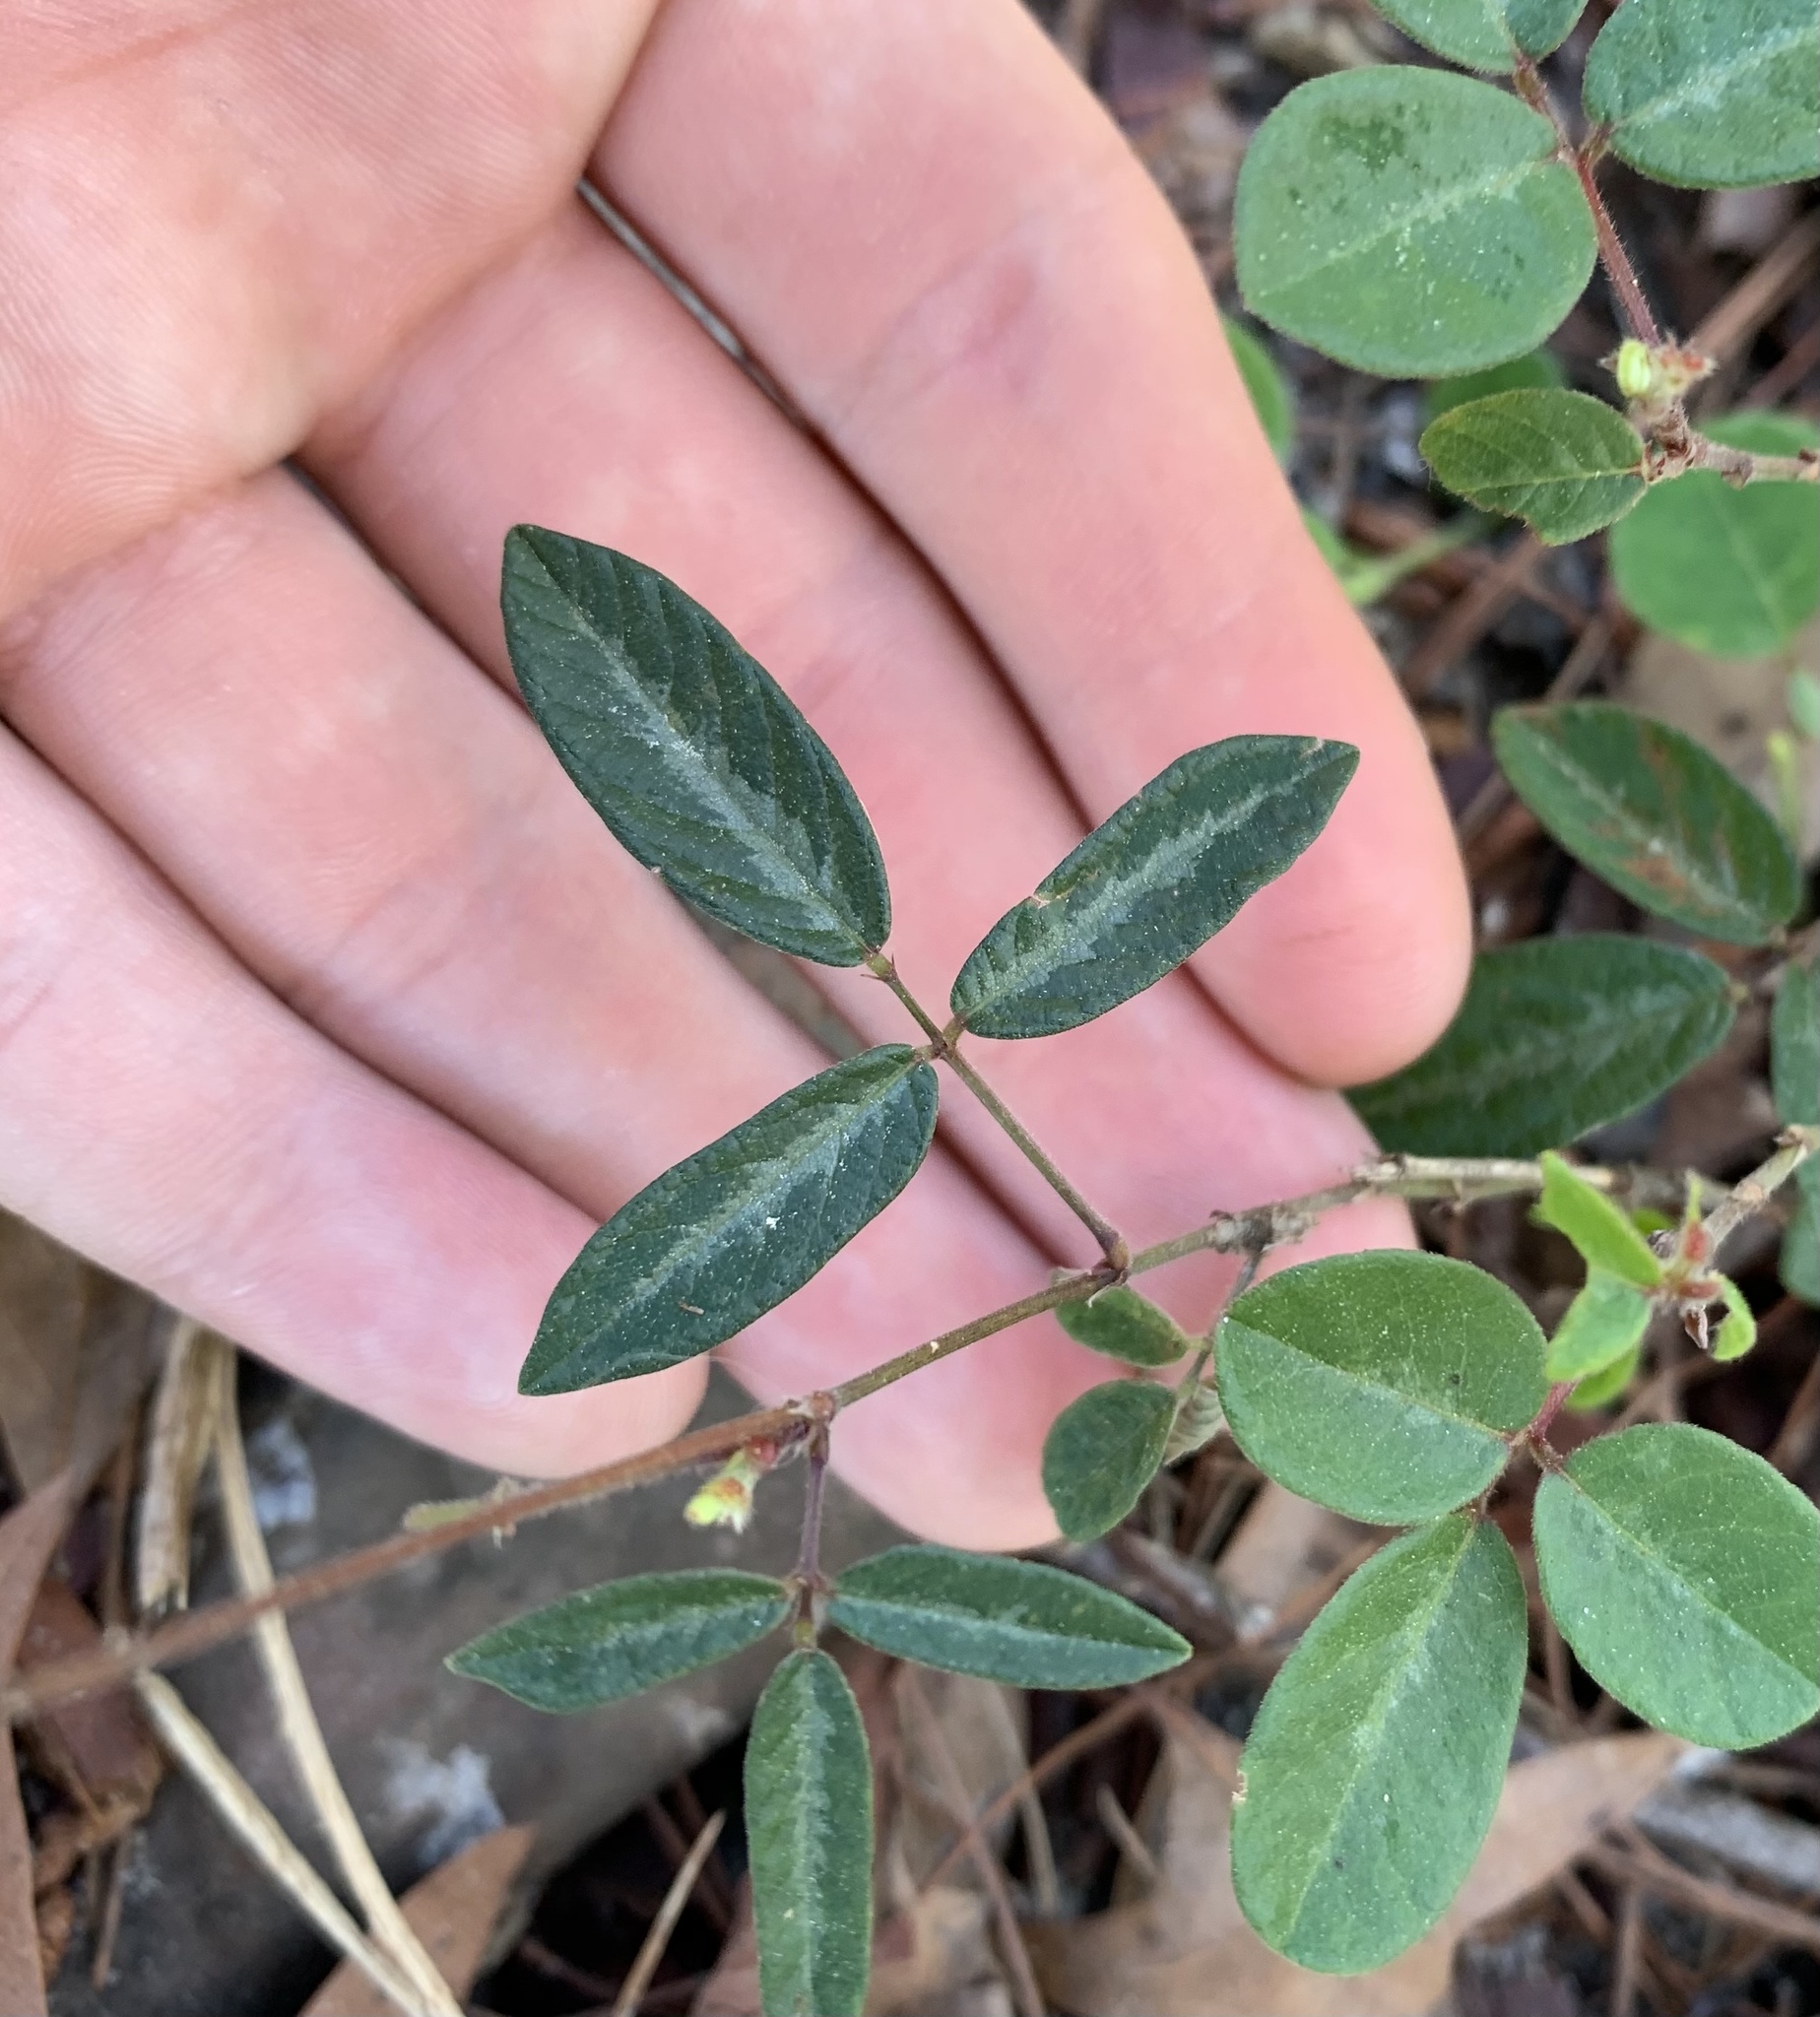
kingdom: Plantae
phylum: Tracheophyta
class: Magnoliopsida
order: Fabales
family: Fabaceae
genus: Desmodium
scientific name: Desmodium incanum
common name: Tickclover
